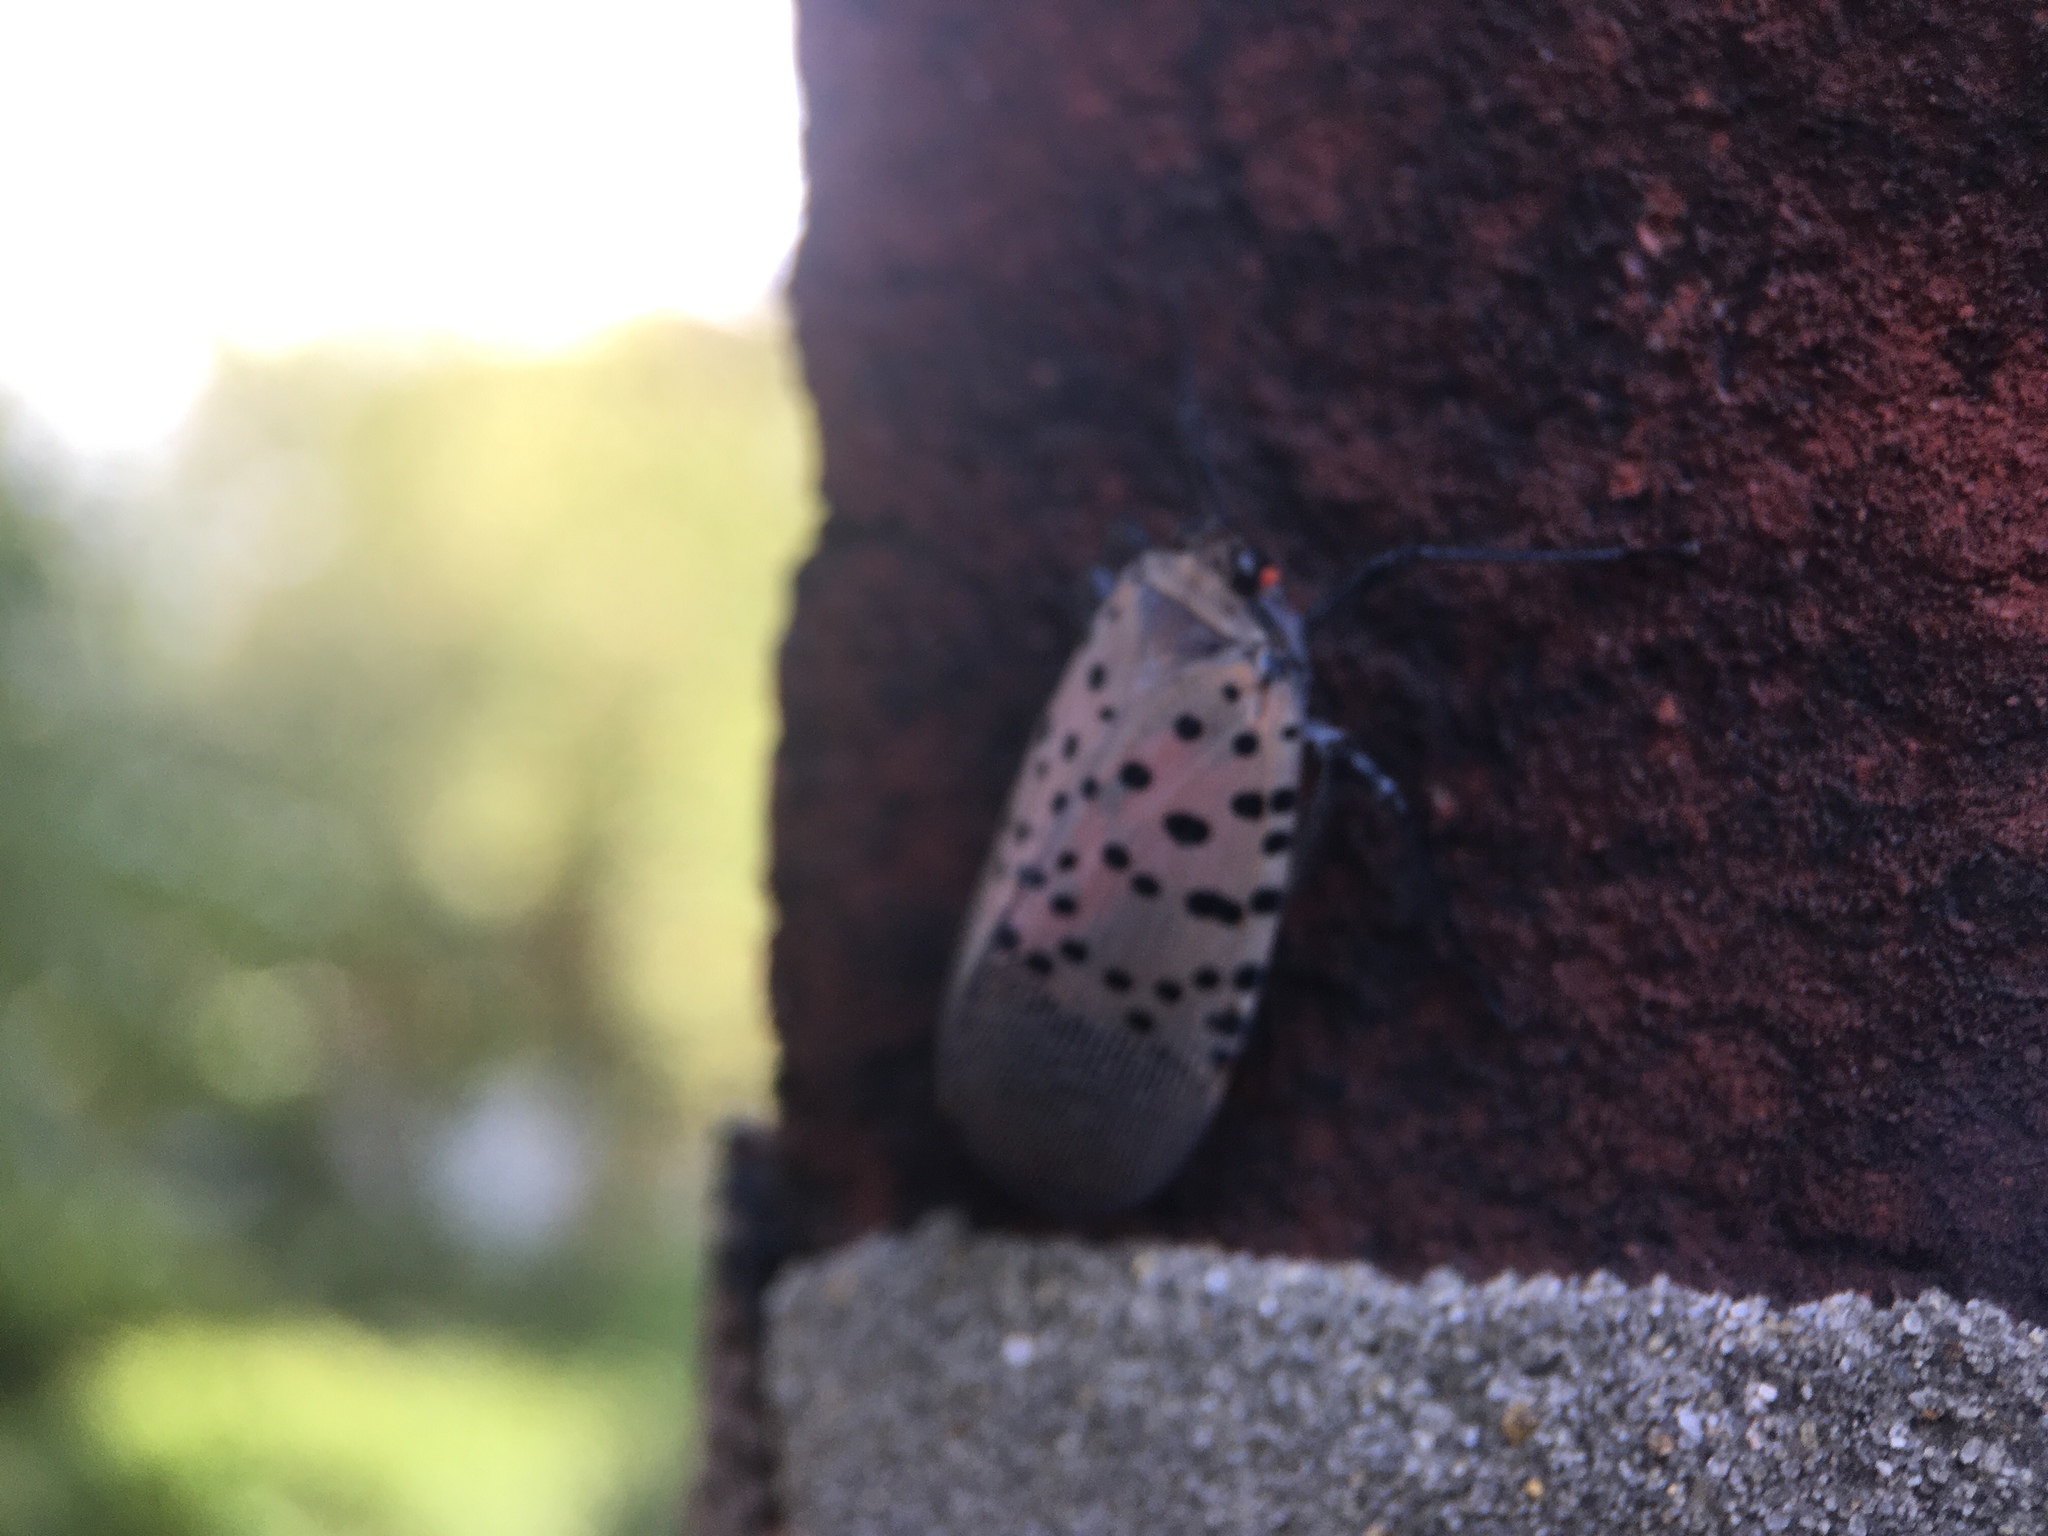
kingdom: Animalia
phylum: Arthropoda
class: Insecta
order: Hemiptera
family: Fulgoridae
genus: Lycorma
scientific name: Lycorma delicatula
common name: Spotted lanternfly
